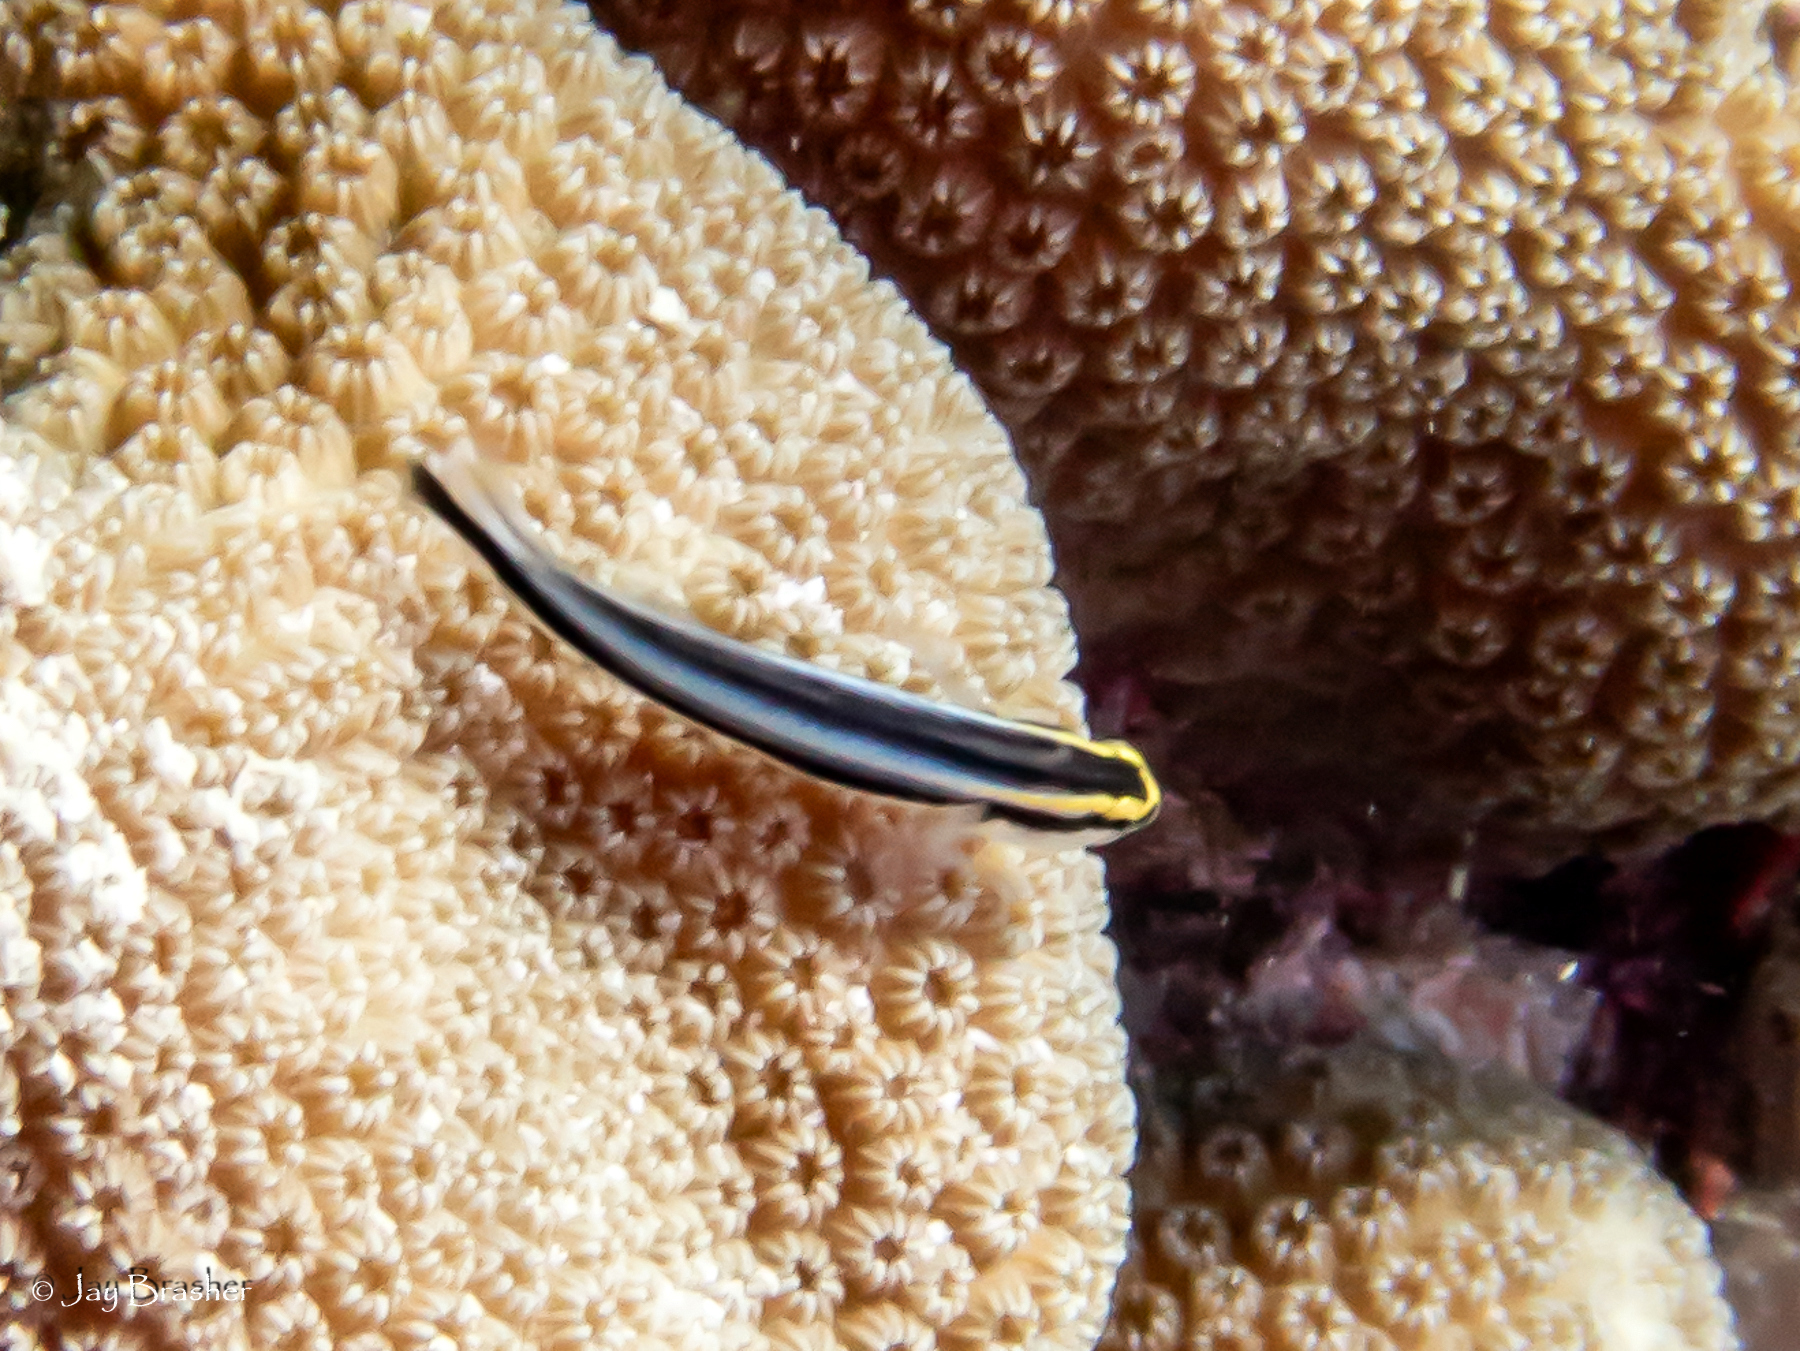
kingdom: Animalia
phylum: Chordata
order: Perciformes
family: Gobiidae
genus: Elacatinus
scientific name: Elacatinus evelynae
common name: Sharknose goby
